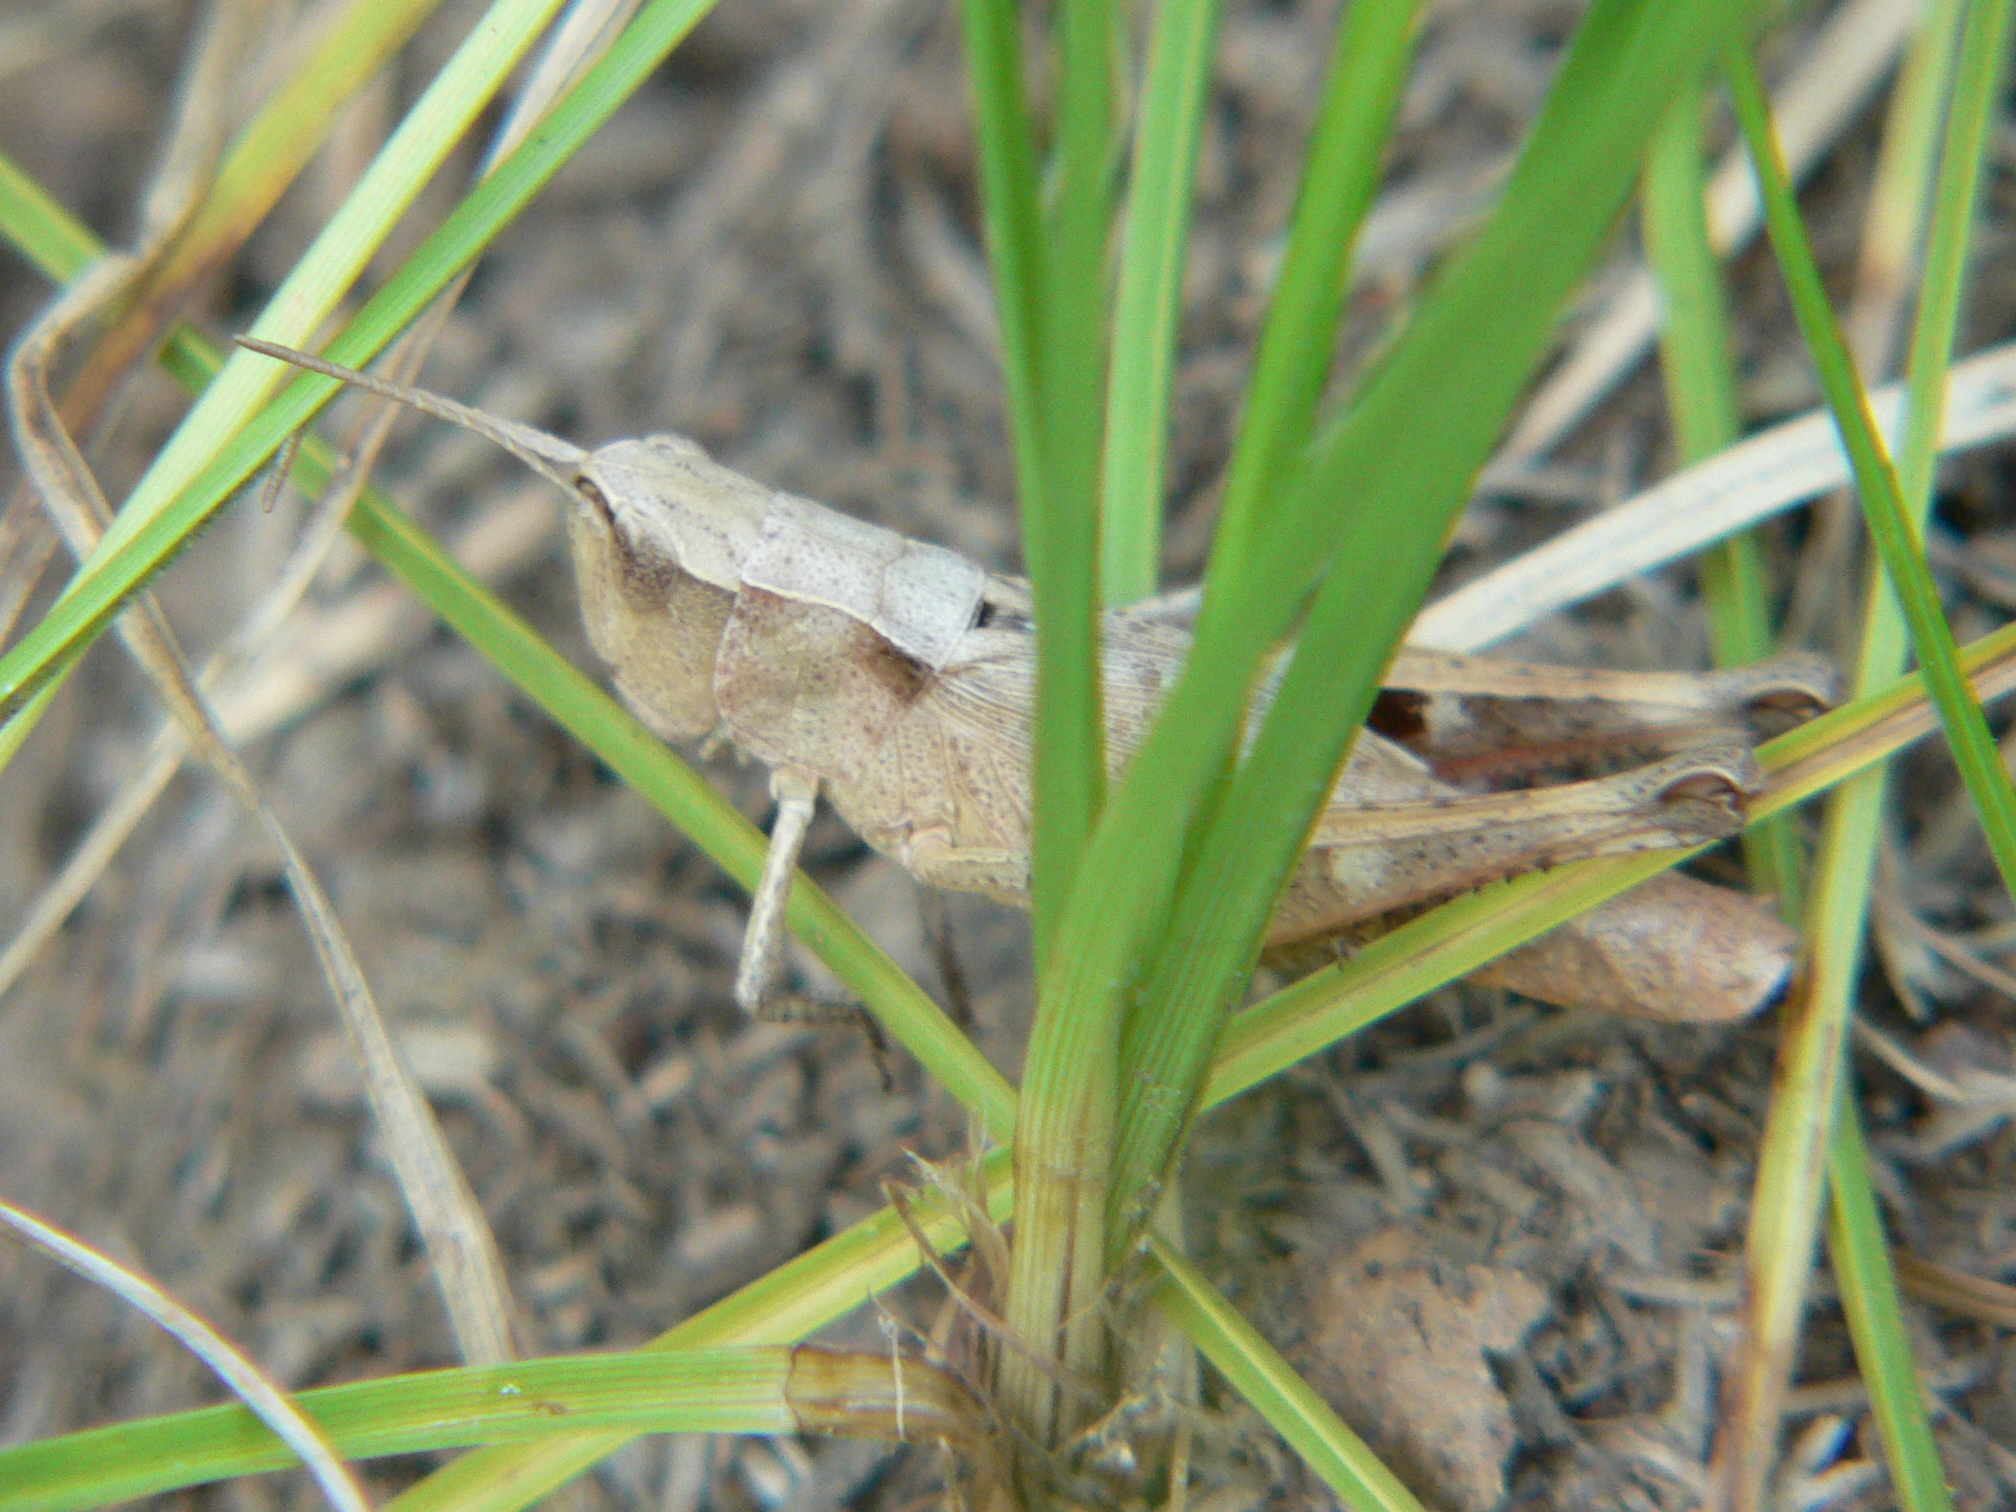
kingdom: Animalia
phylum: Arthropoda
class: Insecta
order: Orthoptera
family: Acrididae
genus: Chloealtis
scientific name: Chloealtis conspersa
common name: Sprinkled broad-winged grasshopper
